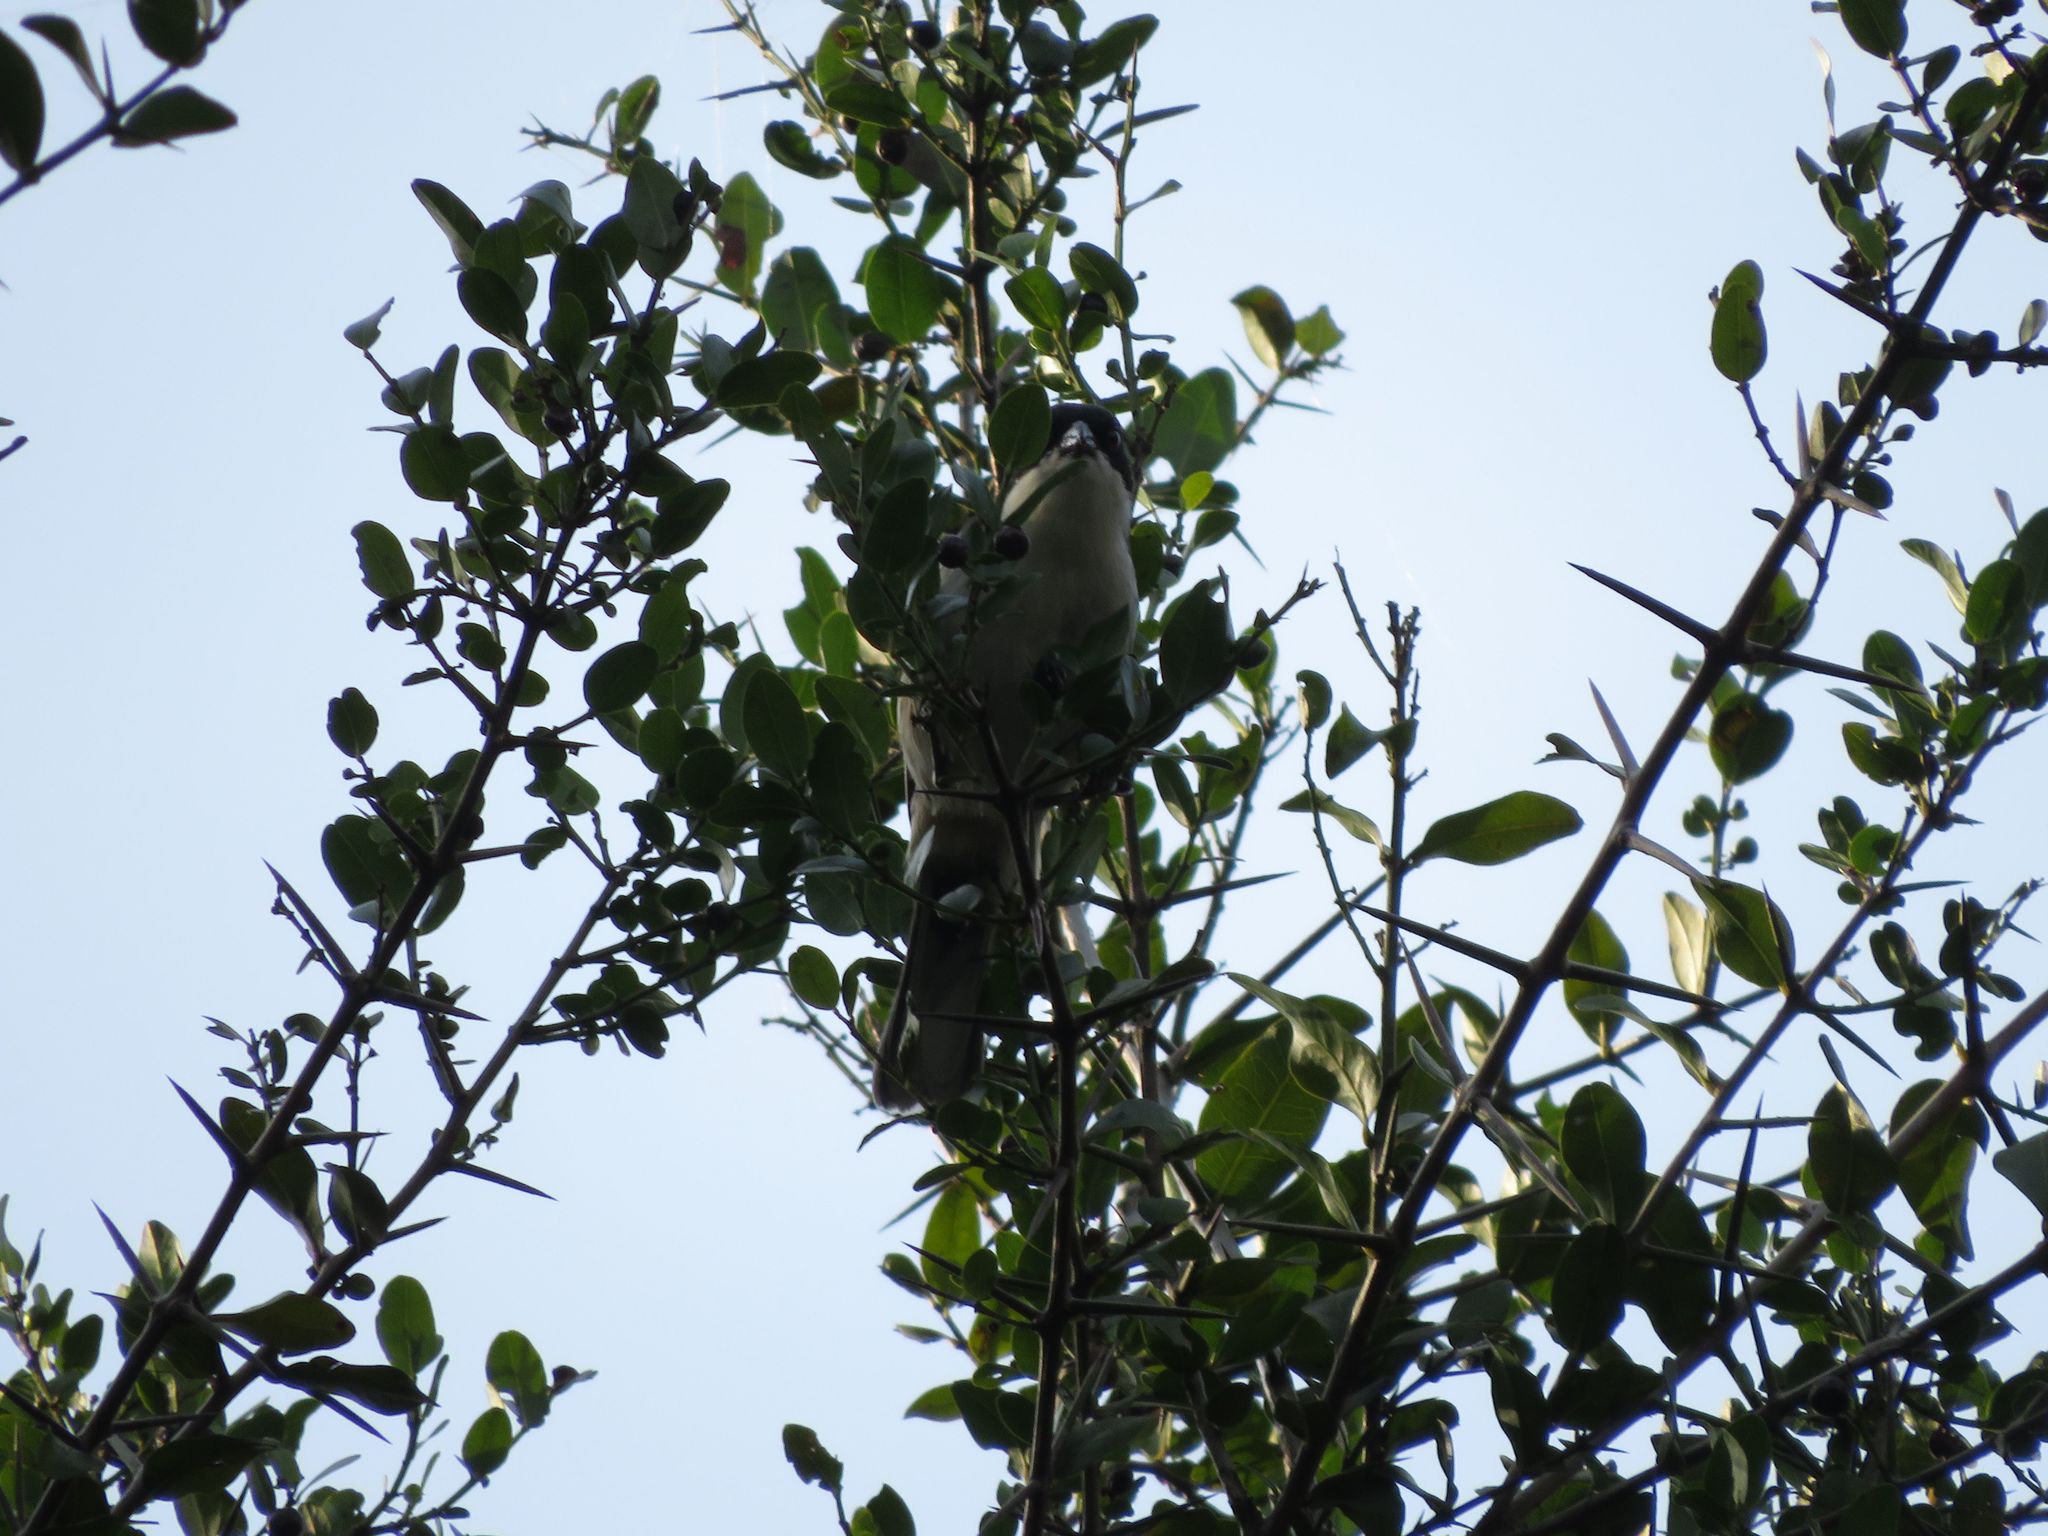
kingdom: Animalia
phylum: Chordata
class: Aves
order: Passeriformes
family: Thraupidae
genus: Microspingus
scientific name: Microspingus melanoleucus
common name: Black-capped warbling-finch
